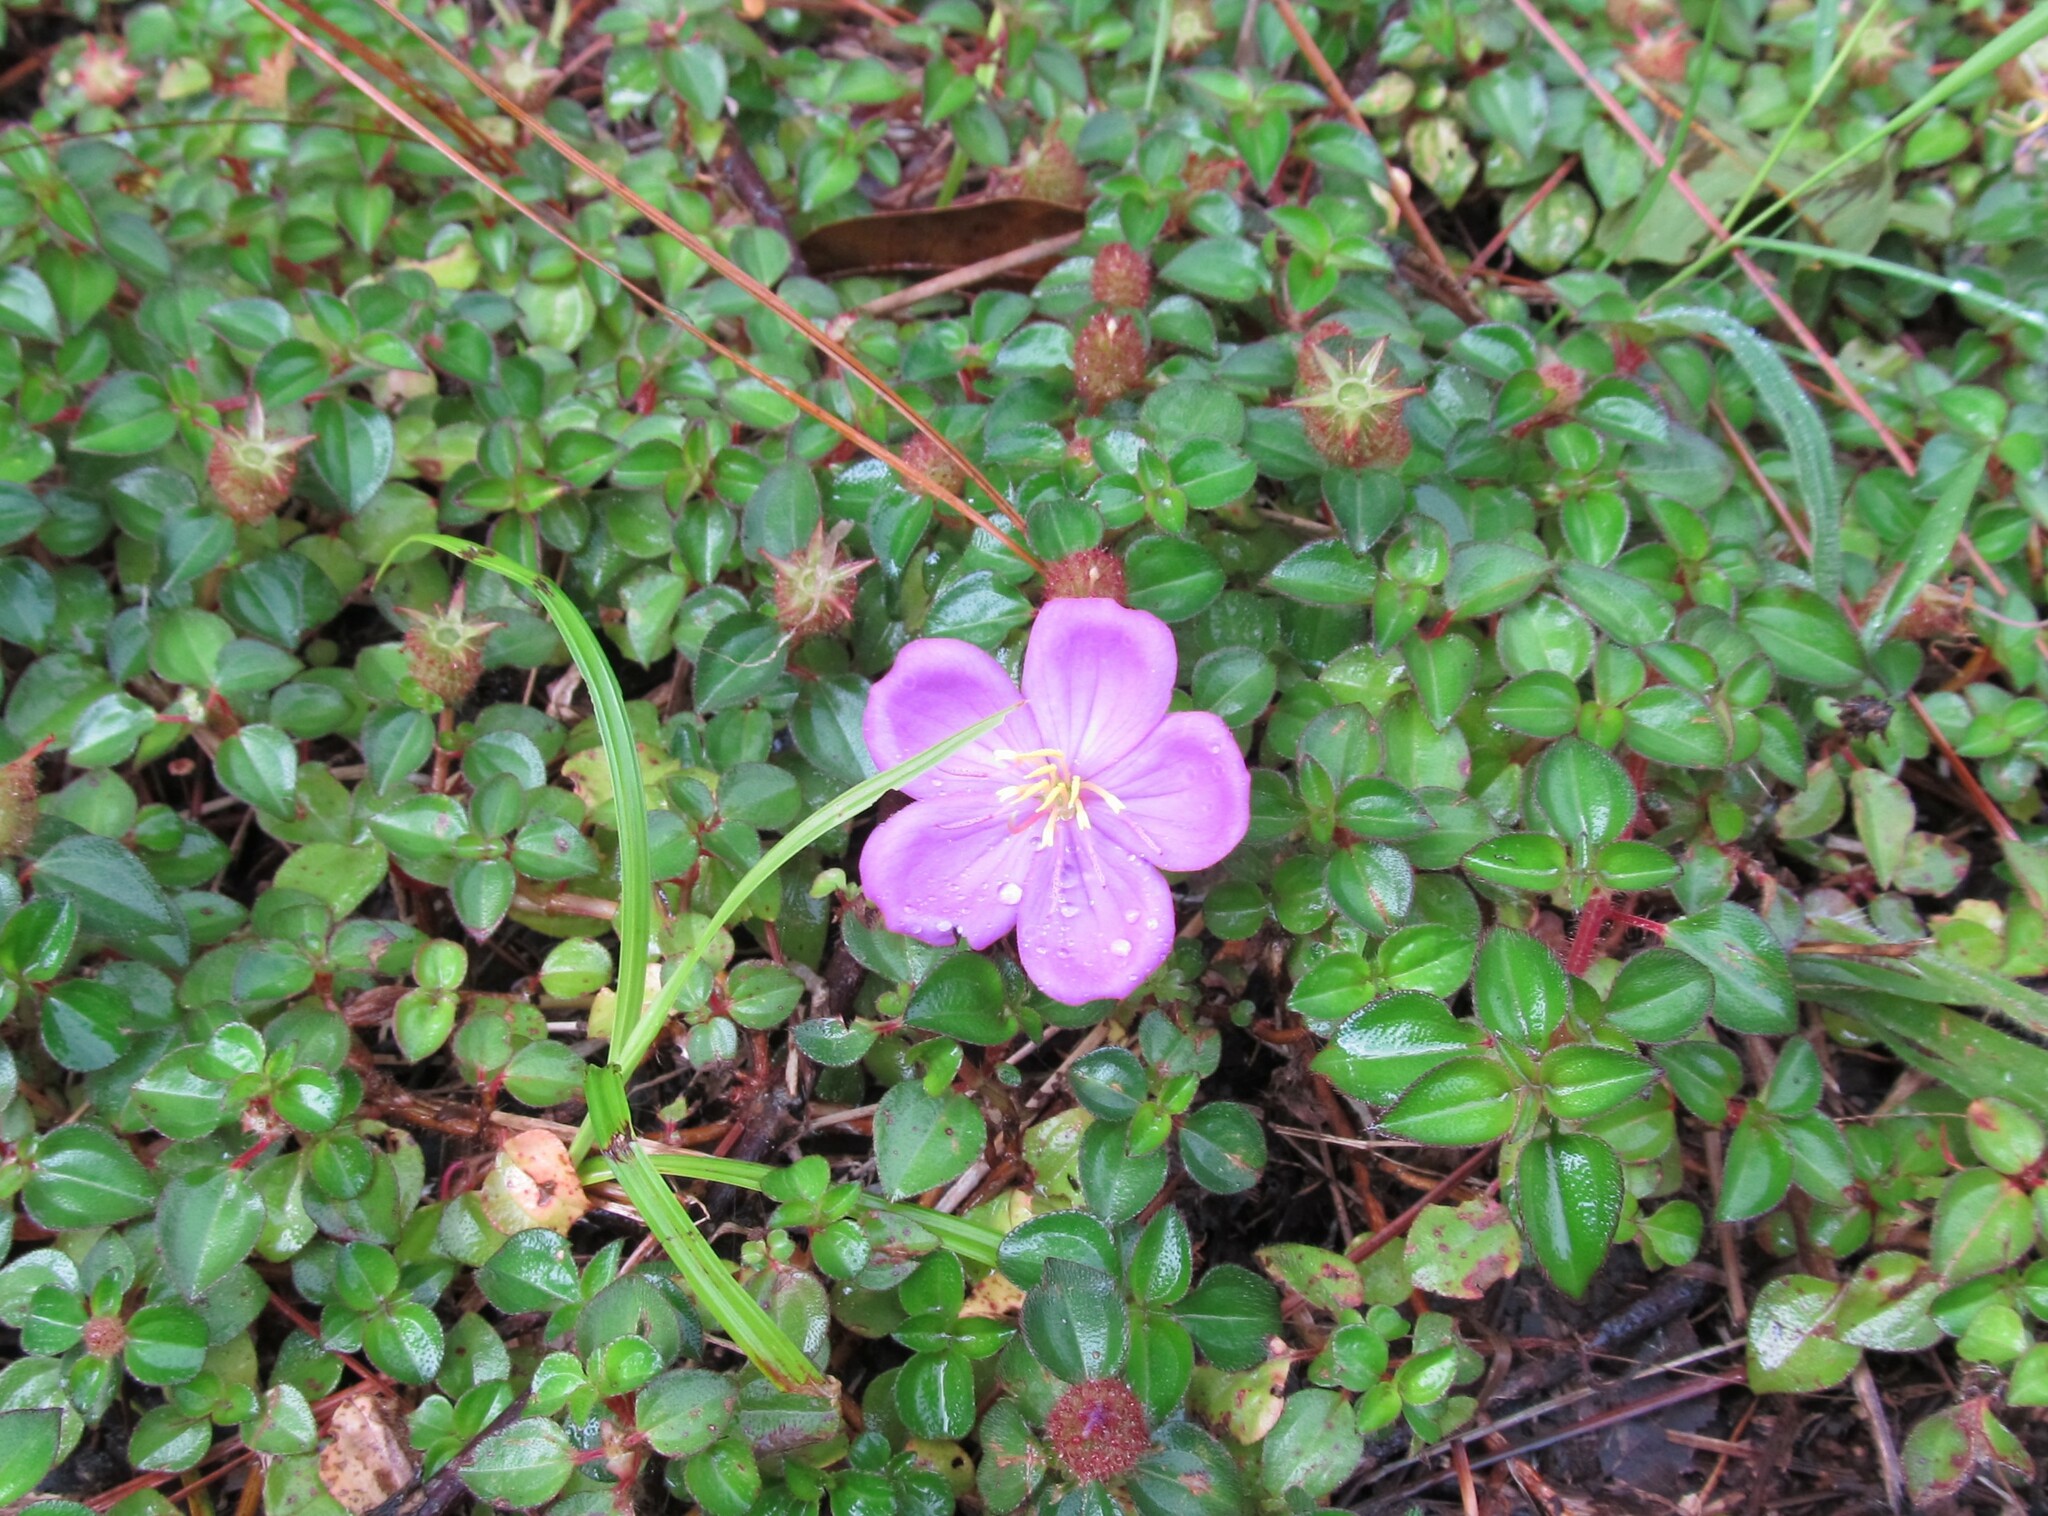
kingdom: Plantae
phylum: Tracheophyta
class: Magnoliopsida
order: Myrtales
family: Melastomataceae
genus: Heterotis
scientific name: Heterotis rotundifolia
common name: Pinklady
